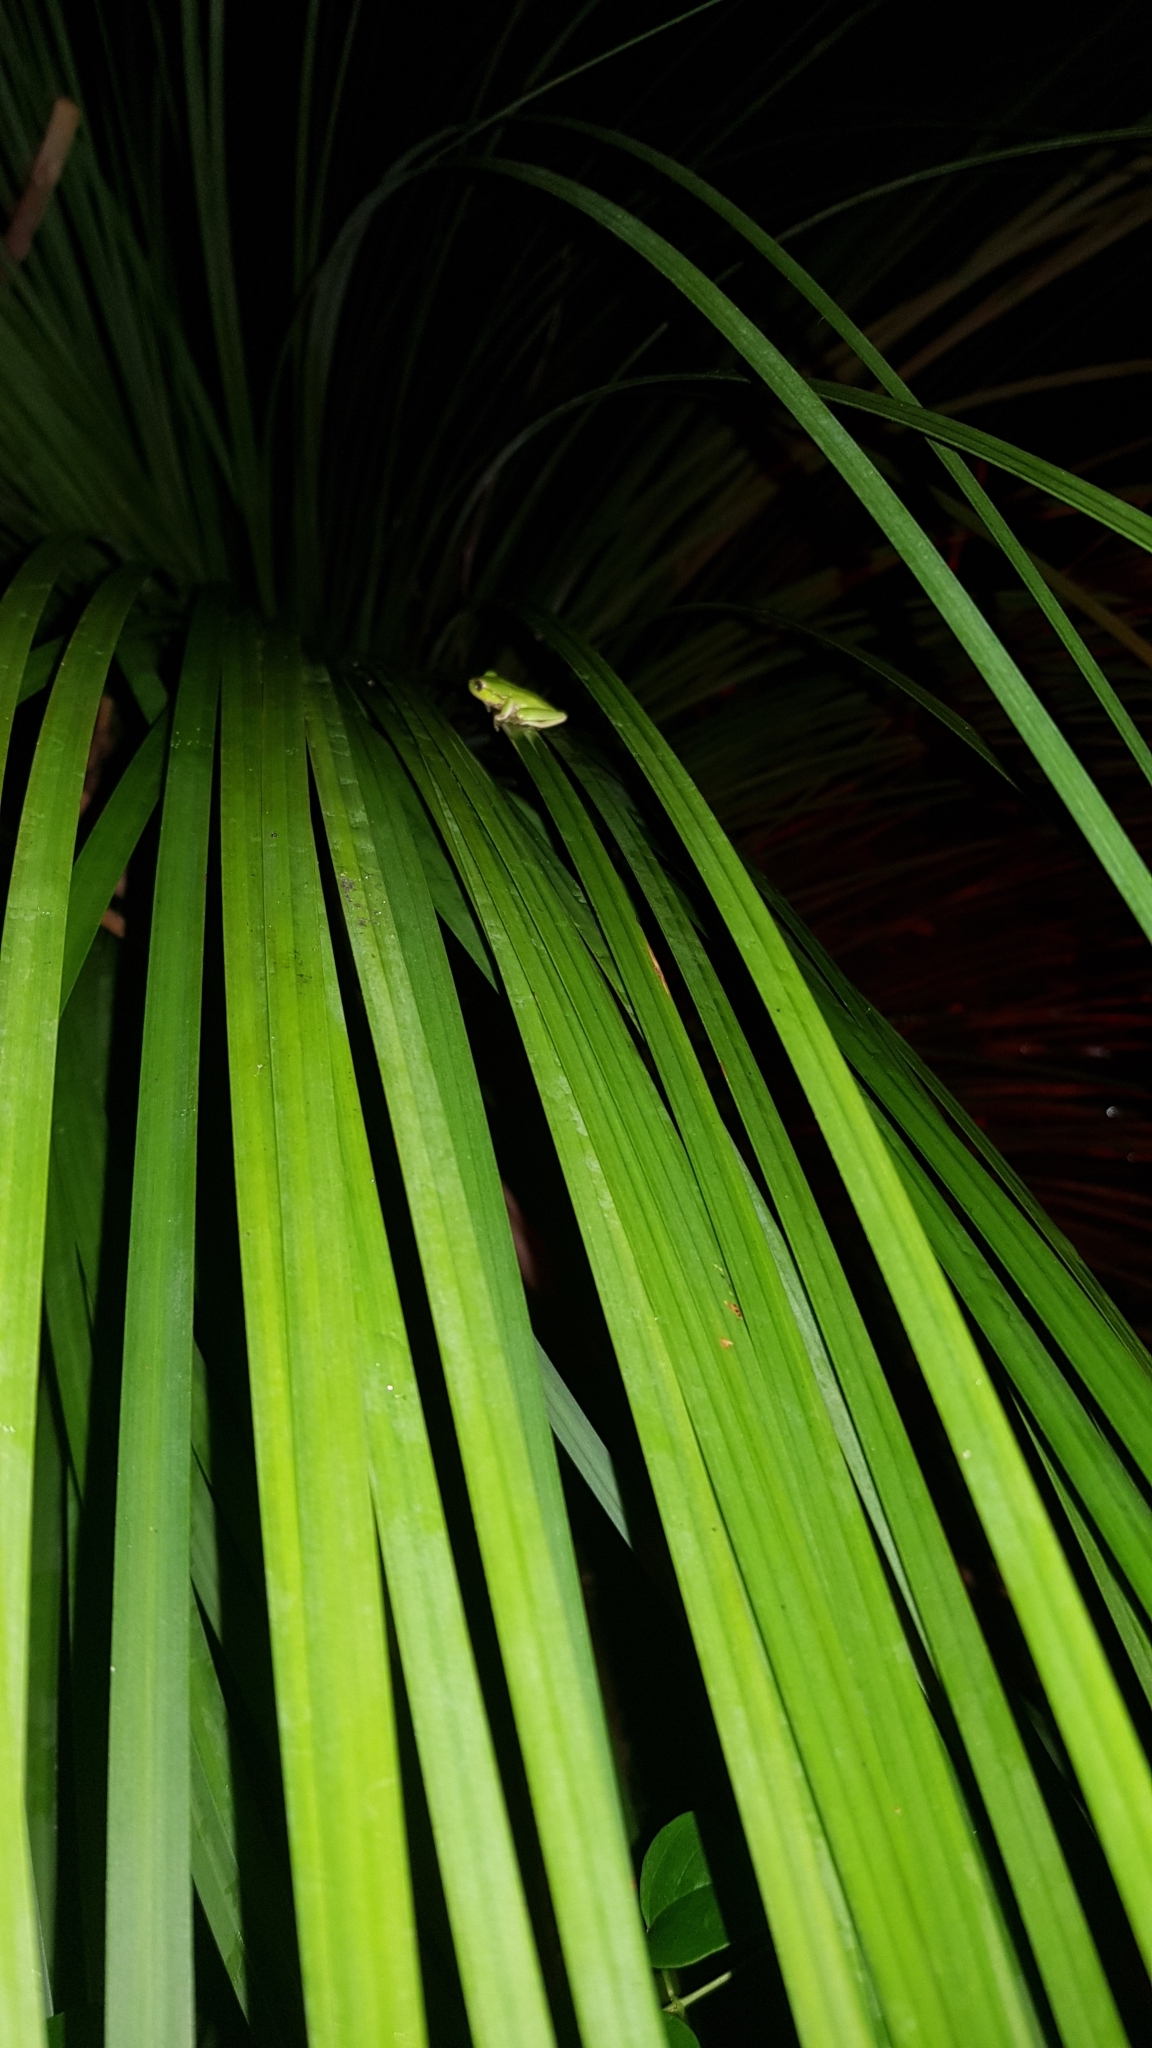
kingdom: Animalia
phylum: Chordata
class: Amphibia
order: Anura
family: Pelodryadidae
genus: Ranoidea
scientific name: Ranoidea phyllochroa
